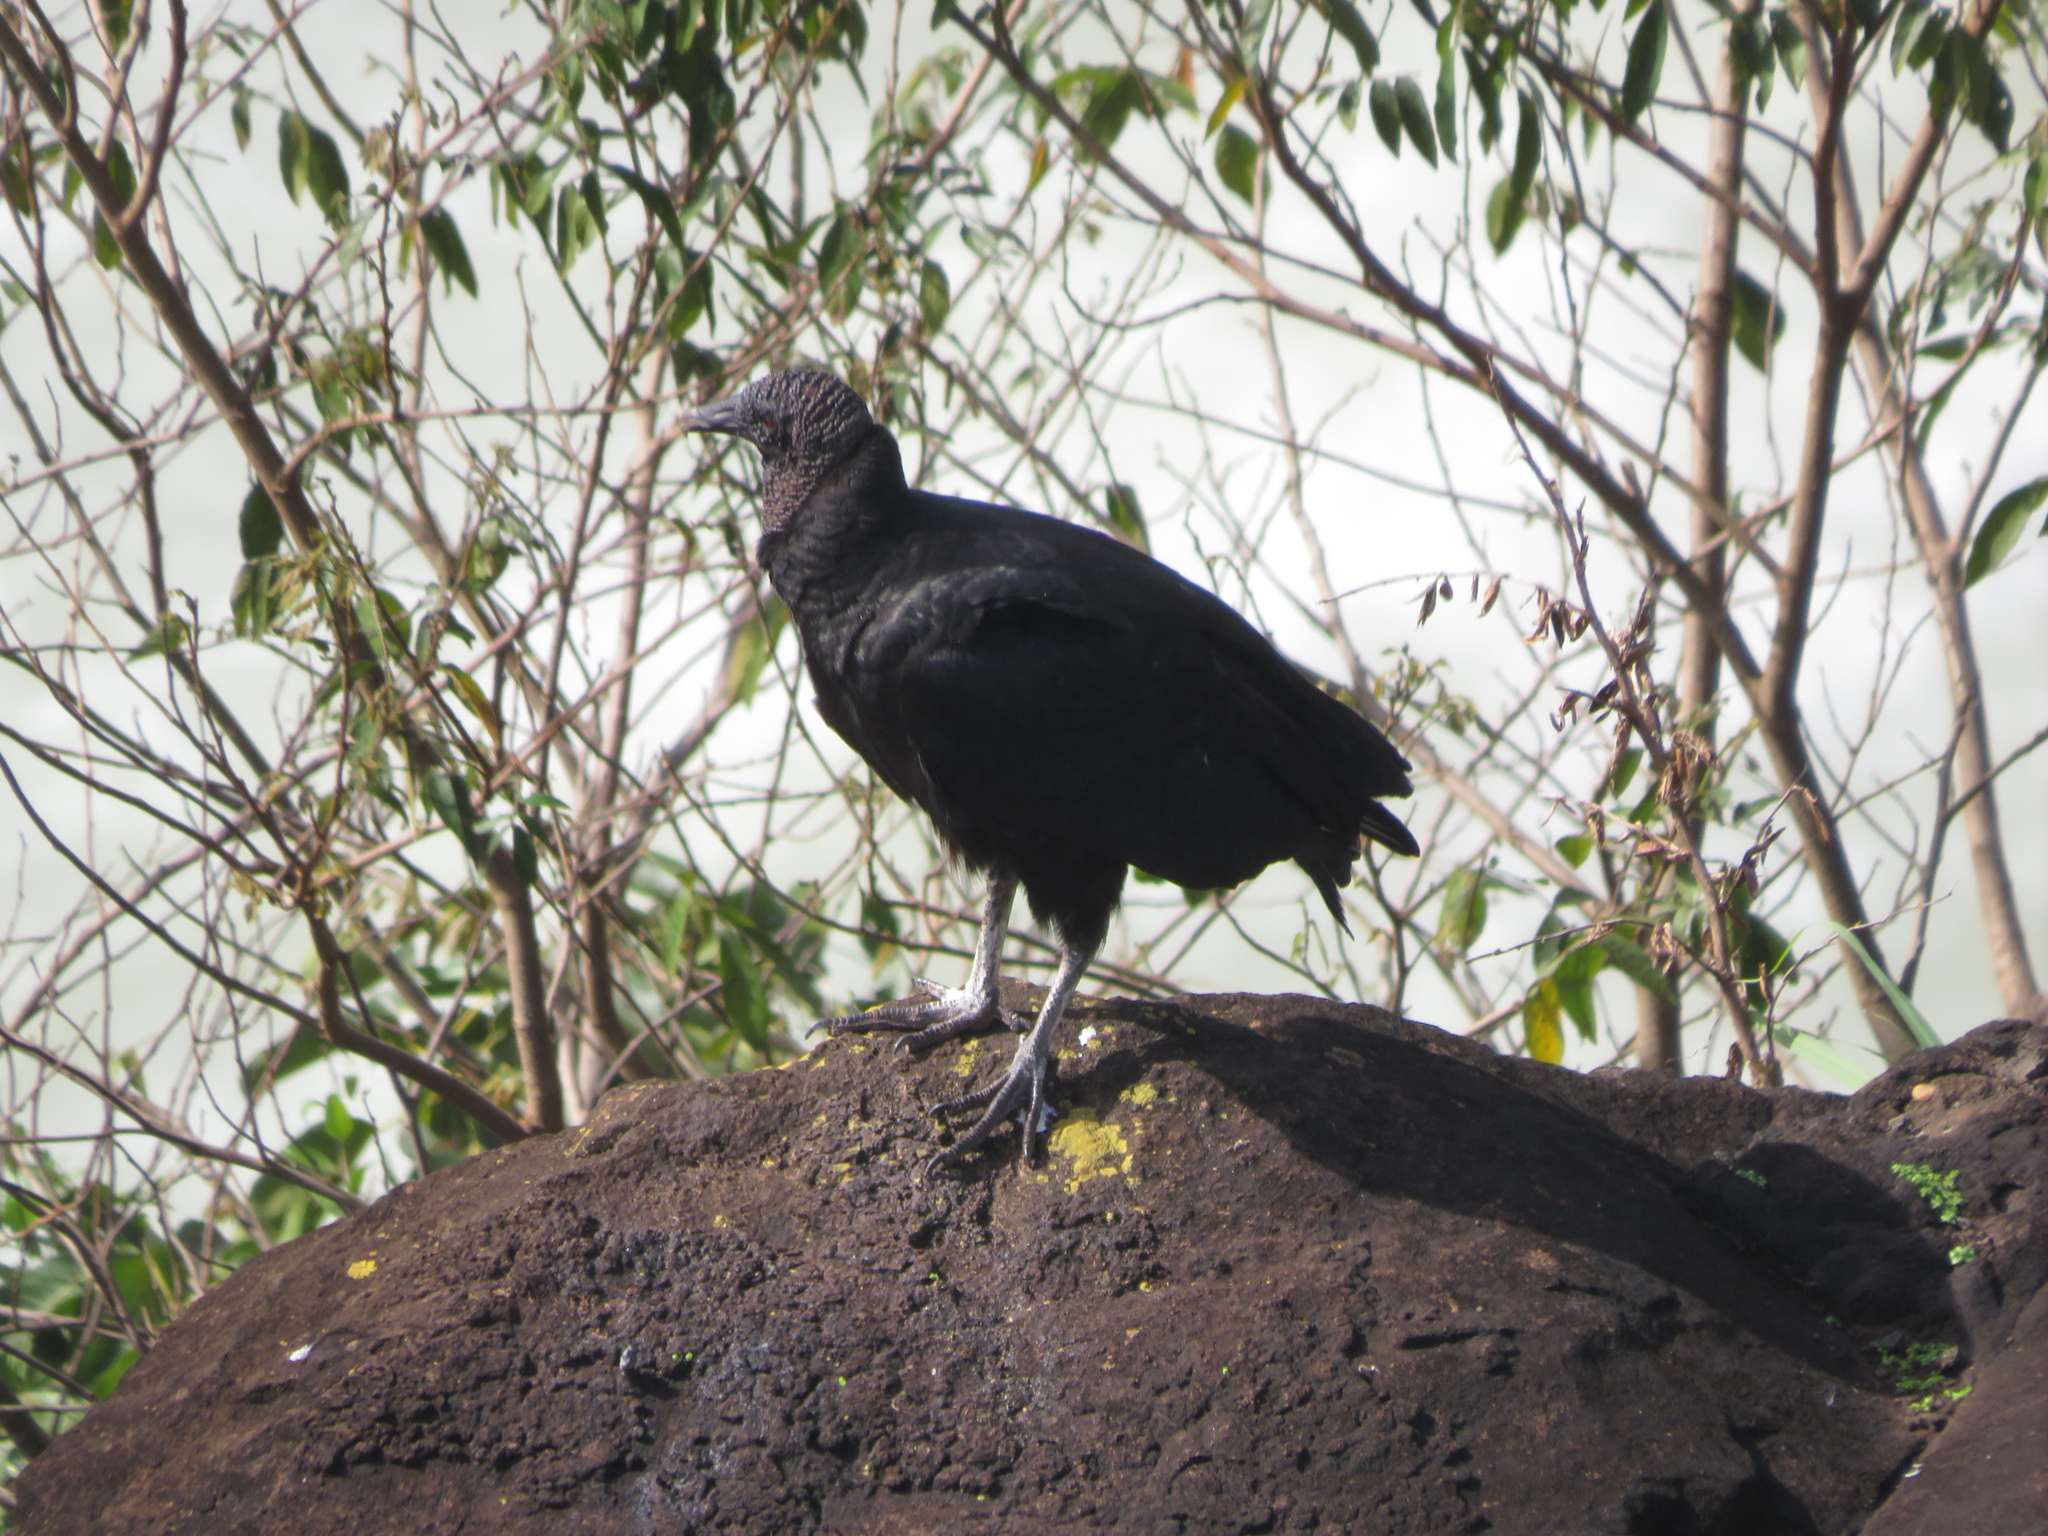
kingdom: Animalia
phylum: Chordata
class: Aves
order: Accipitriformes
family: Cathartidae
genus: Coragyps
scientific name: Coragyps atratus
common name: Black vulture
